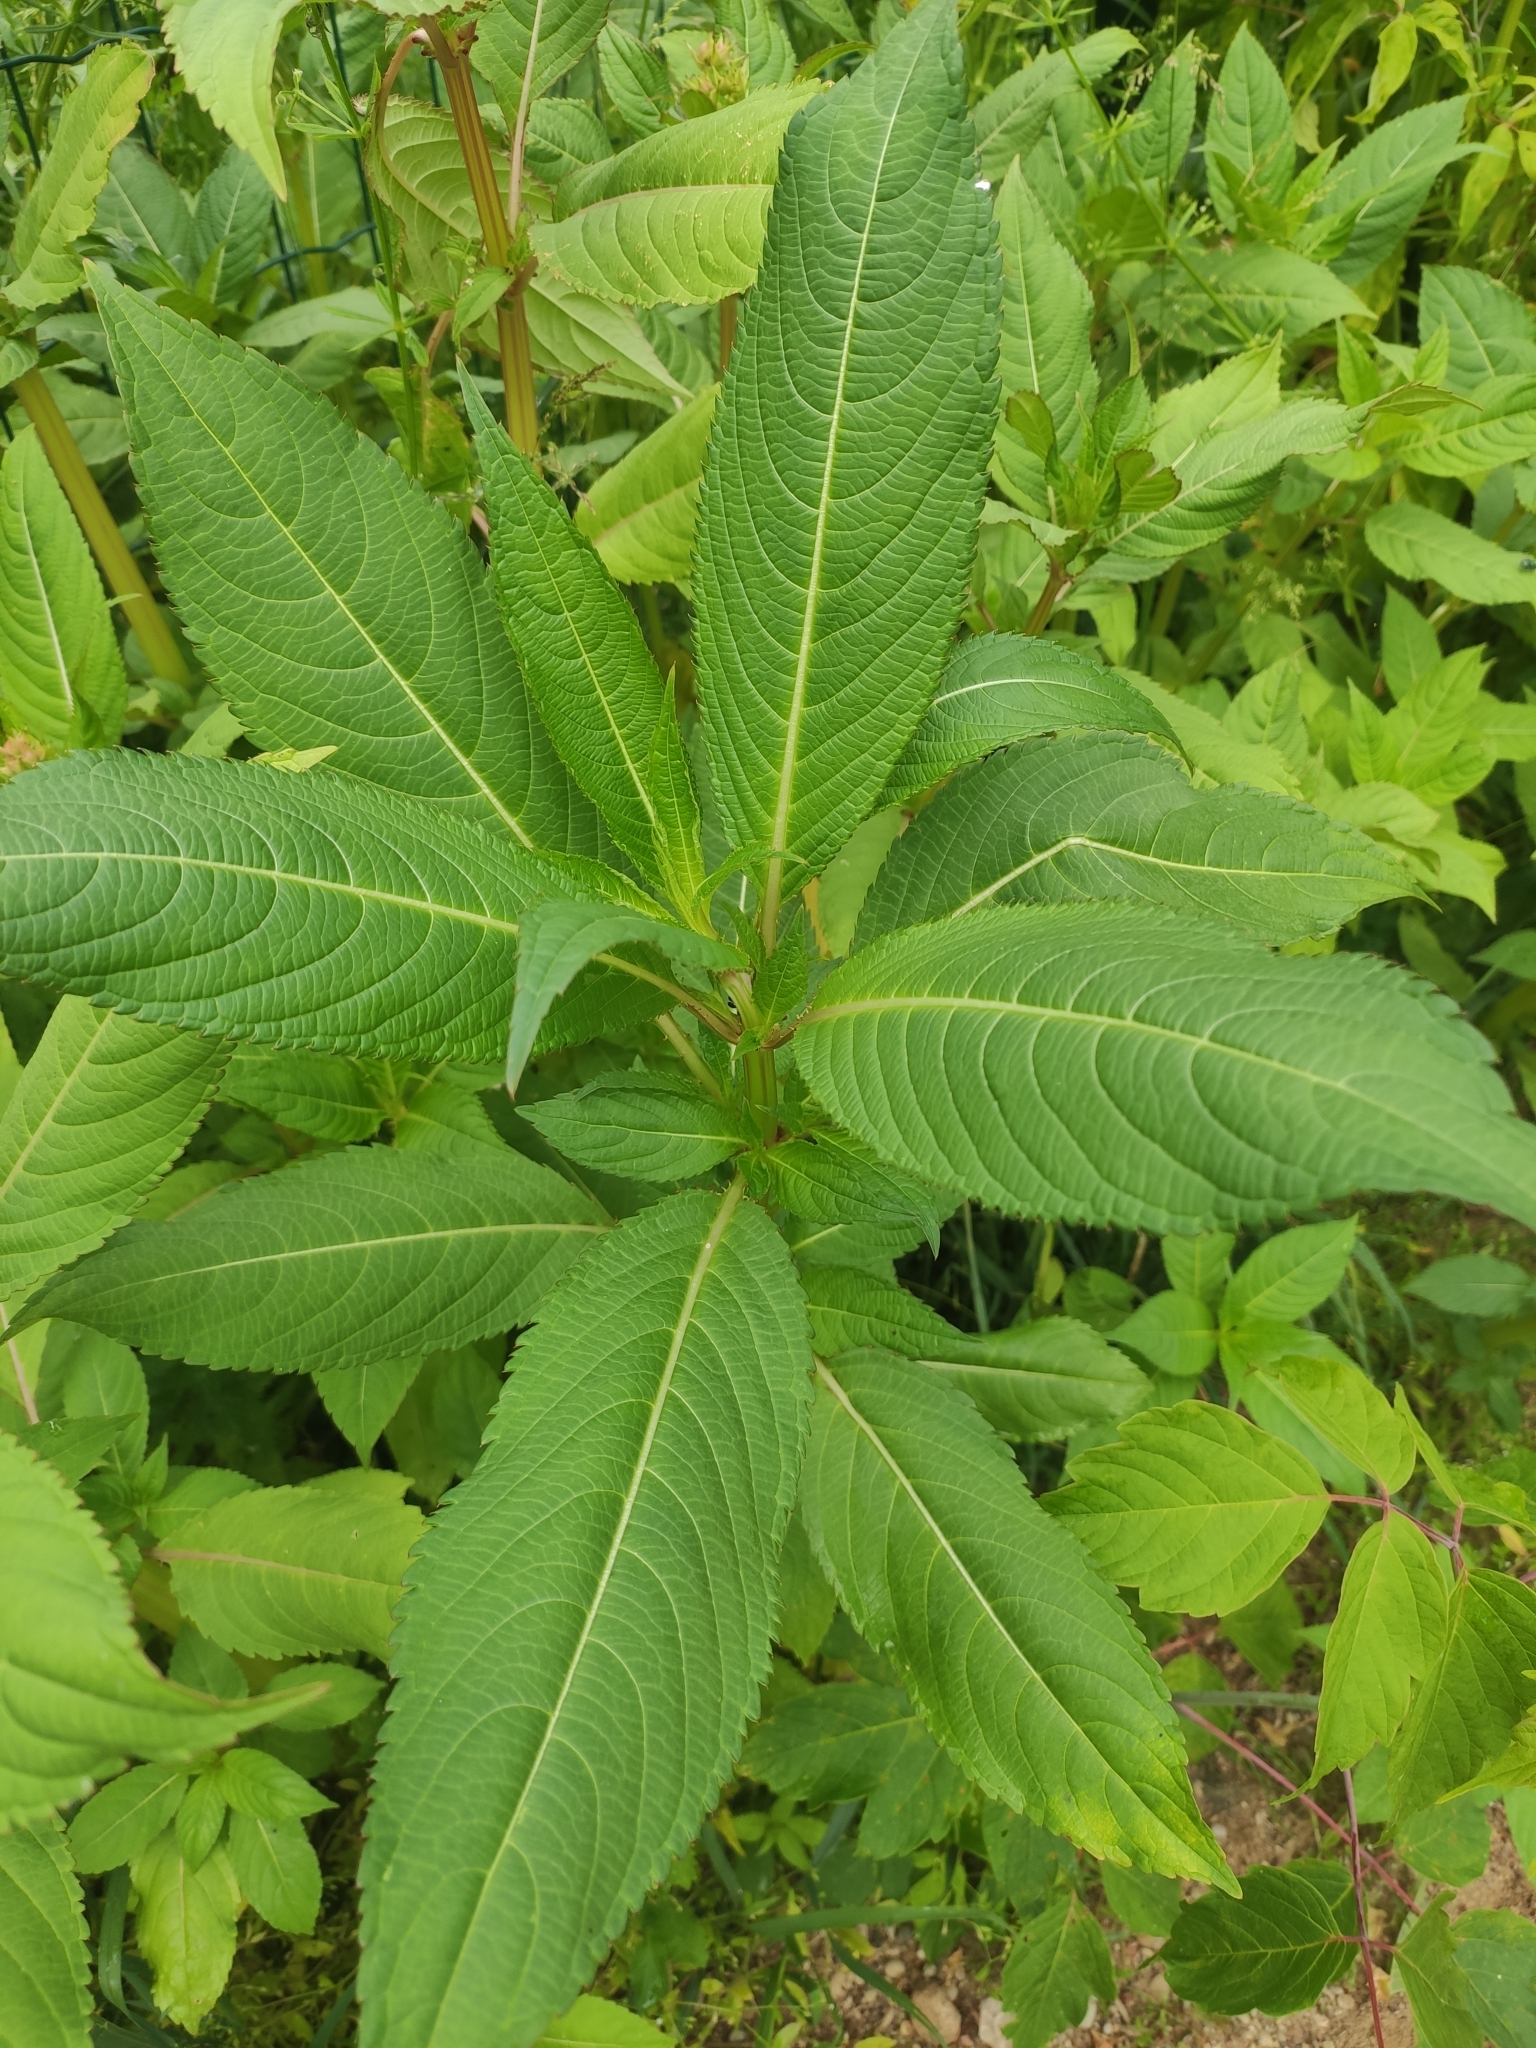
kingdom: Plantae
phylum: Tracheophyta
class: Magnoliopsida
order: Ericales
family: Balsaminaceae
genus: Impatiens
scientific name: Impatiens glandulifera
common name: Himalayan balsam
